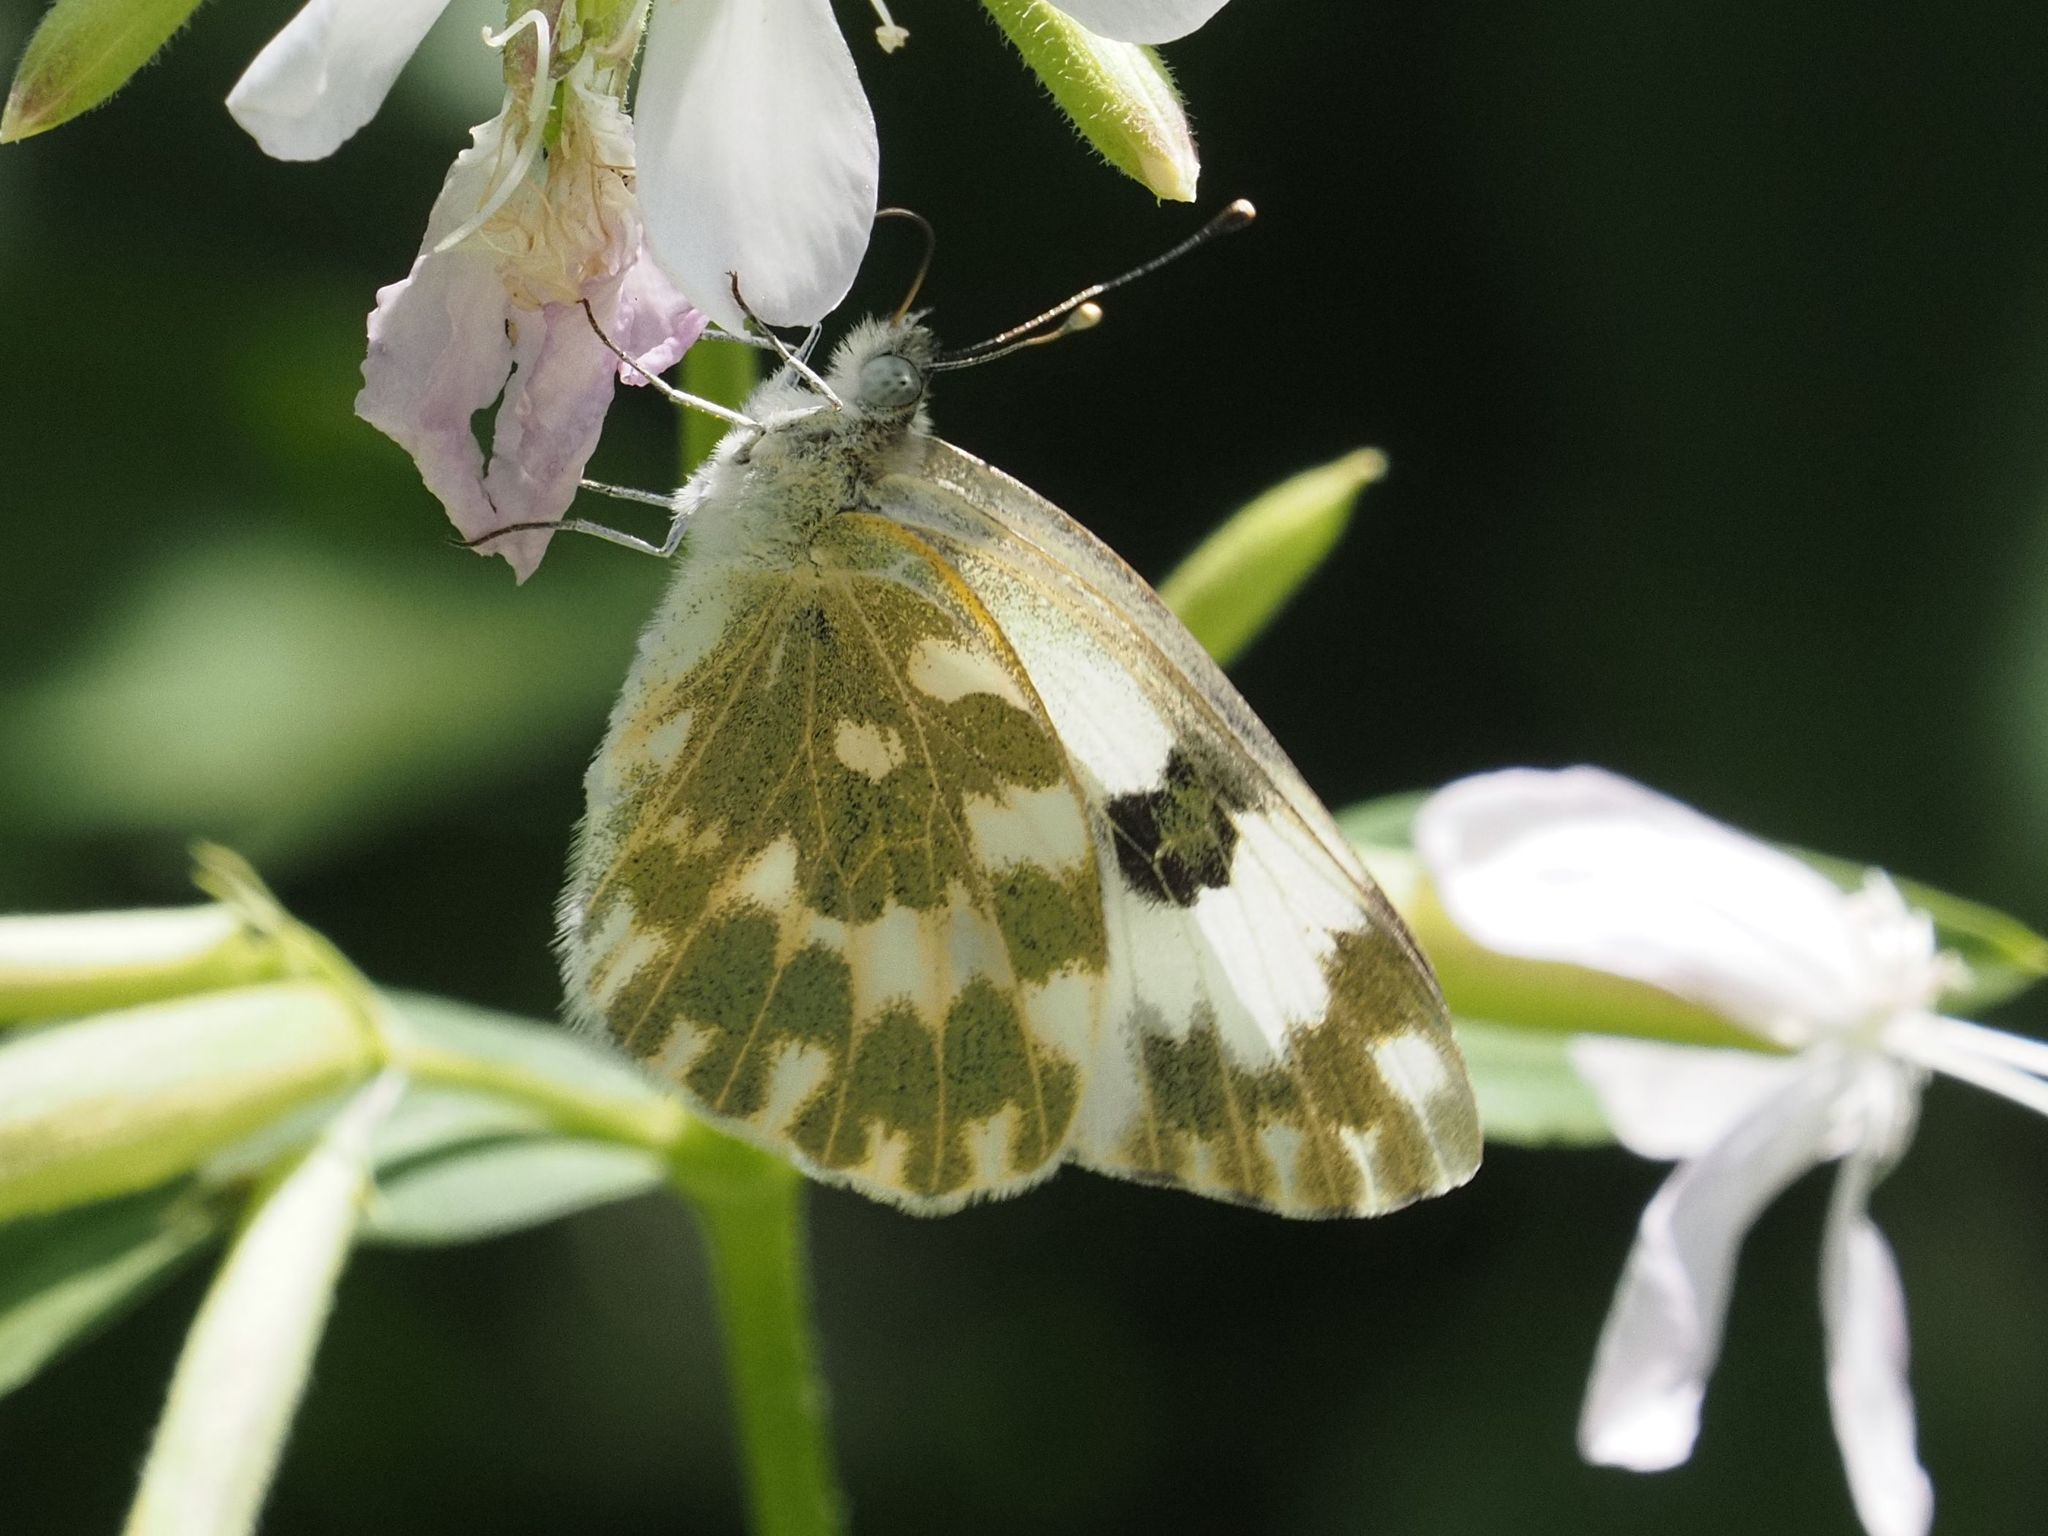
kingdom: Animalia
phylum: Arthropoda
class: Insecta
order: Lepidoptera
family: Pieridae
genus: Pontia
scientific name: Pontia edusa
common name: Eastern bath white
